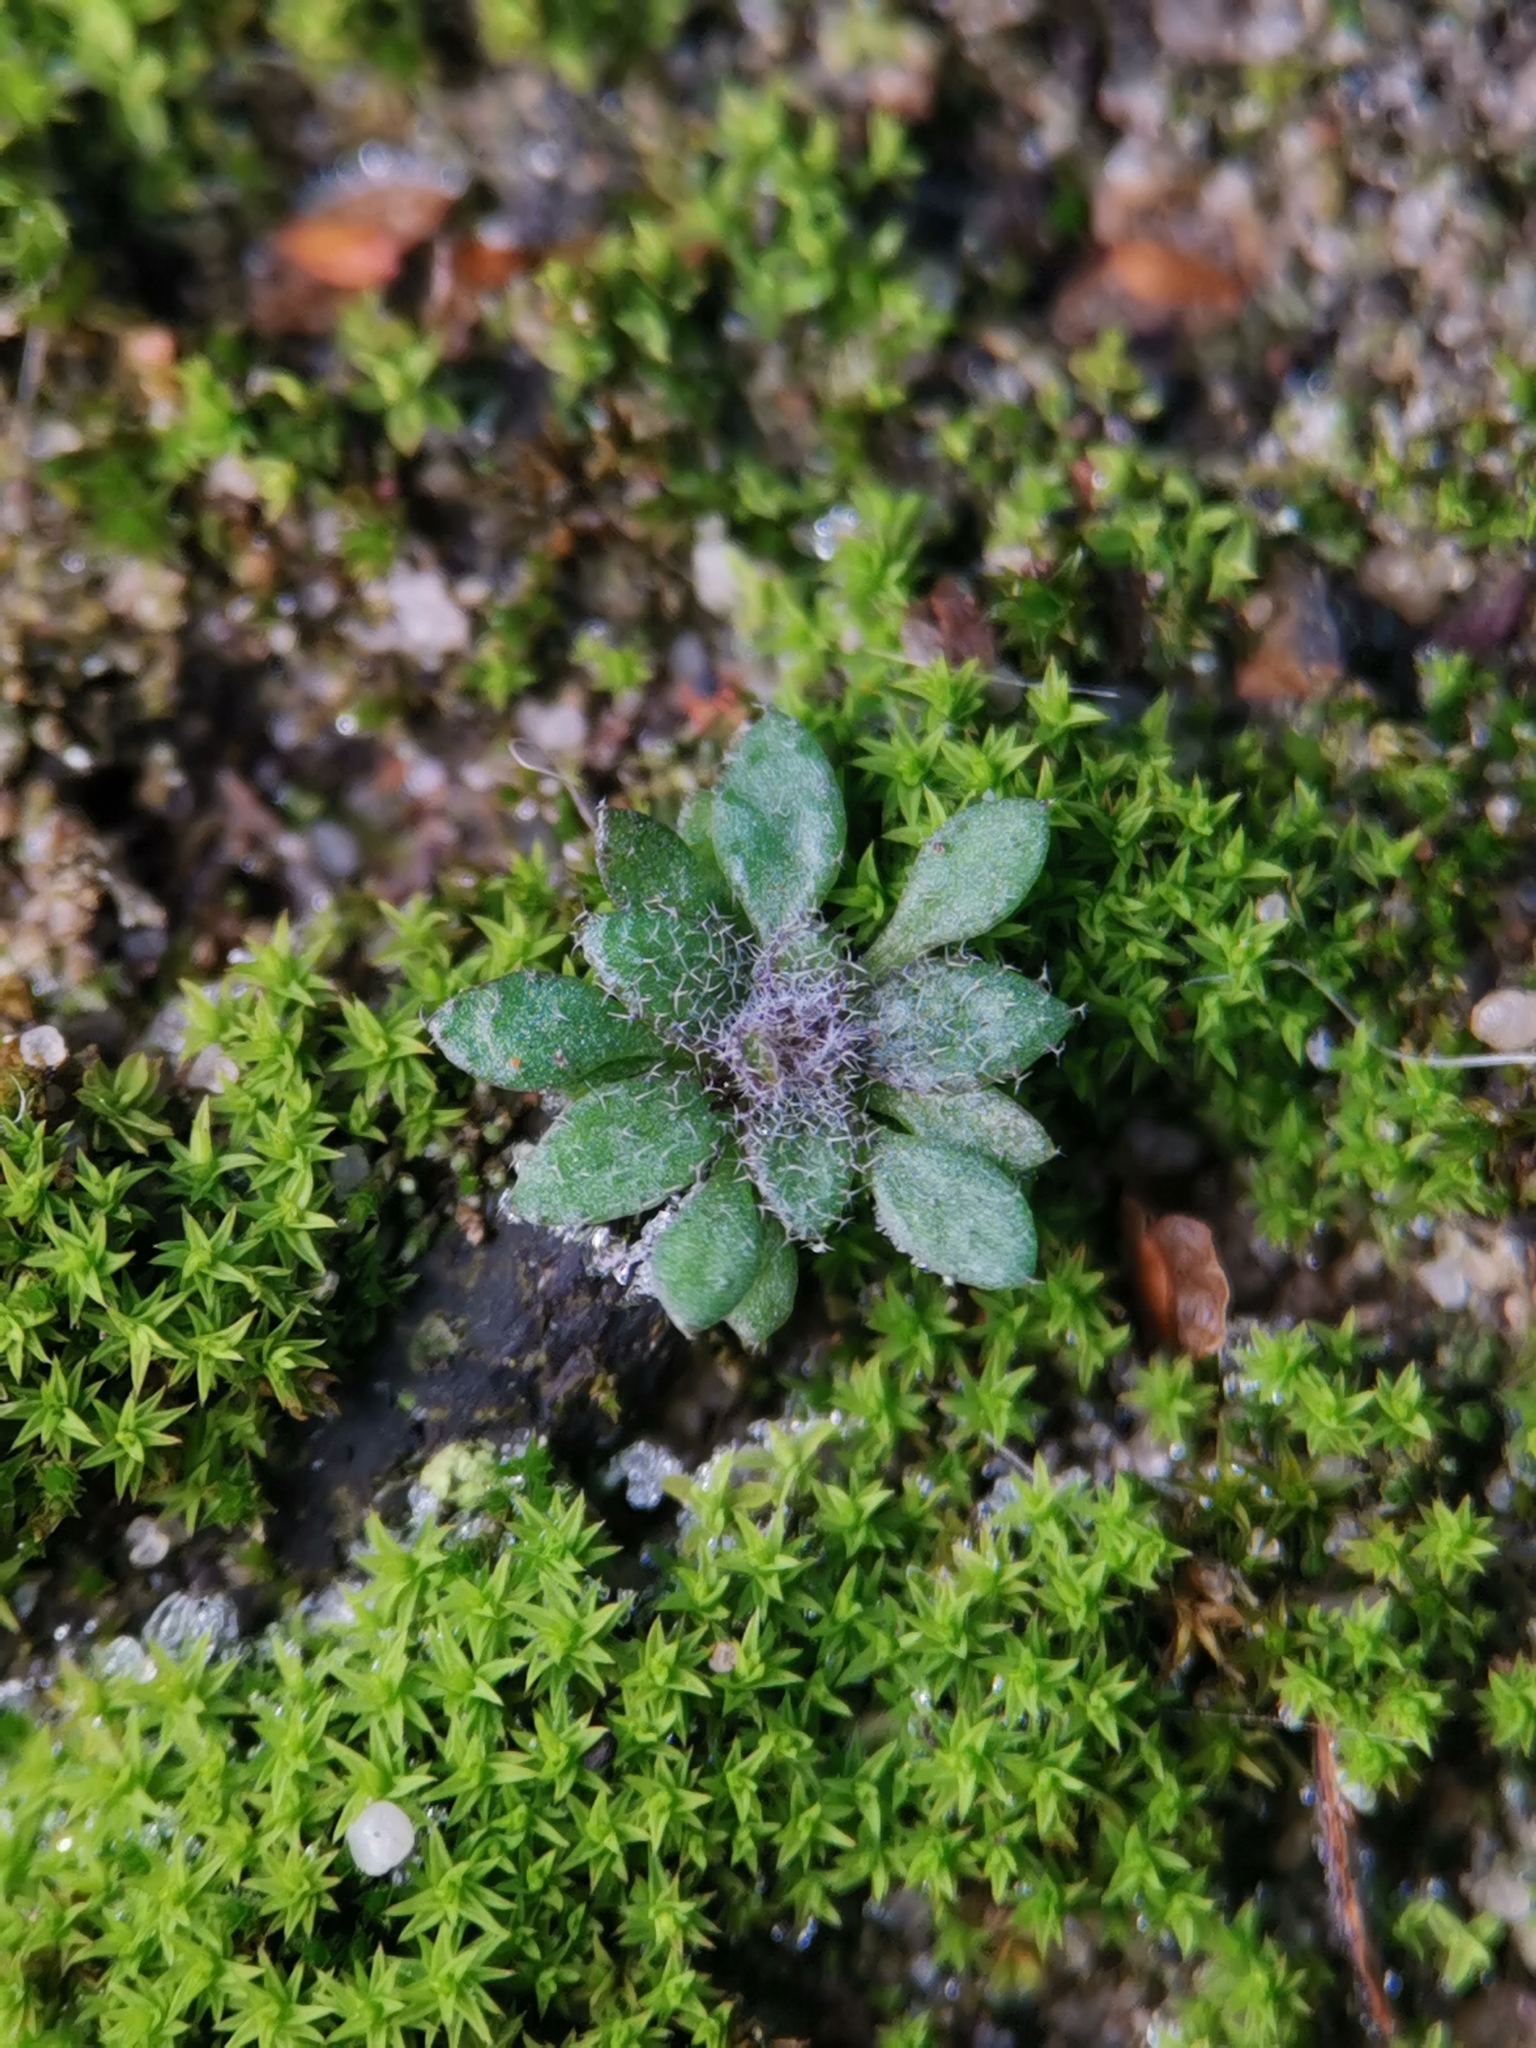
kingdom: Plantae
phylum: Tracheophyta
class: Magnoliopsida
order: Brassicales
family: Brassicaceae
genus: Draba
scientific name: Draba verna
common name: Spring draba
